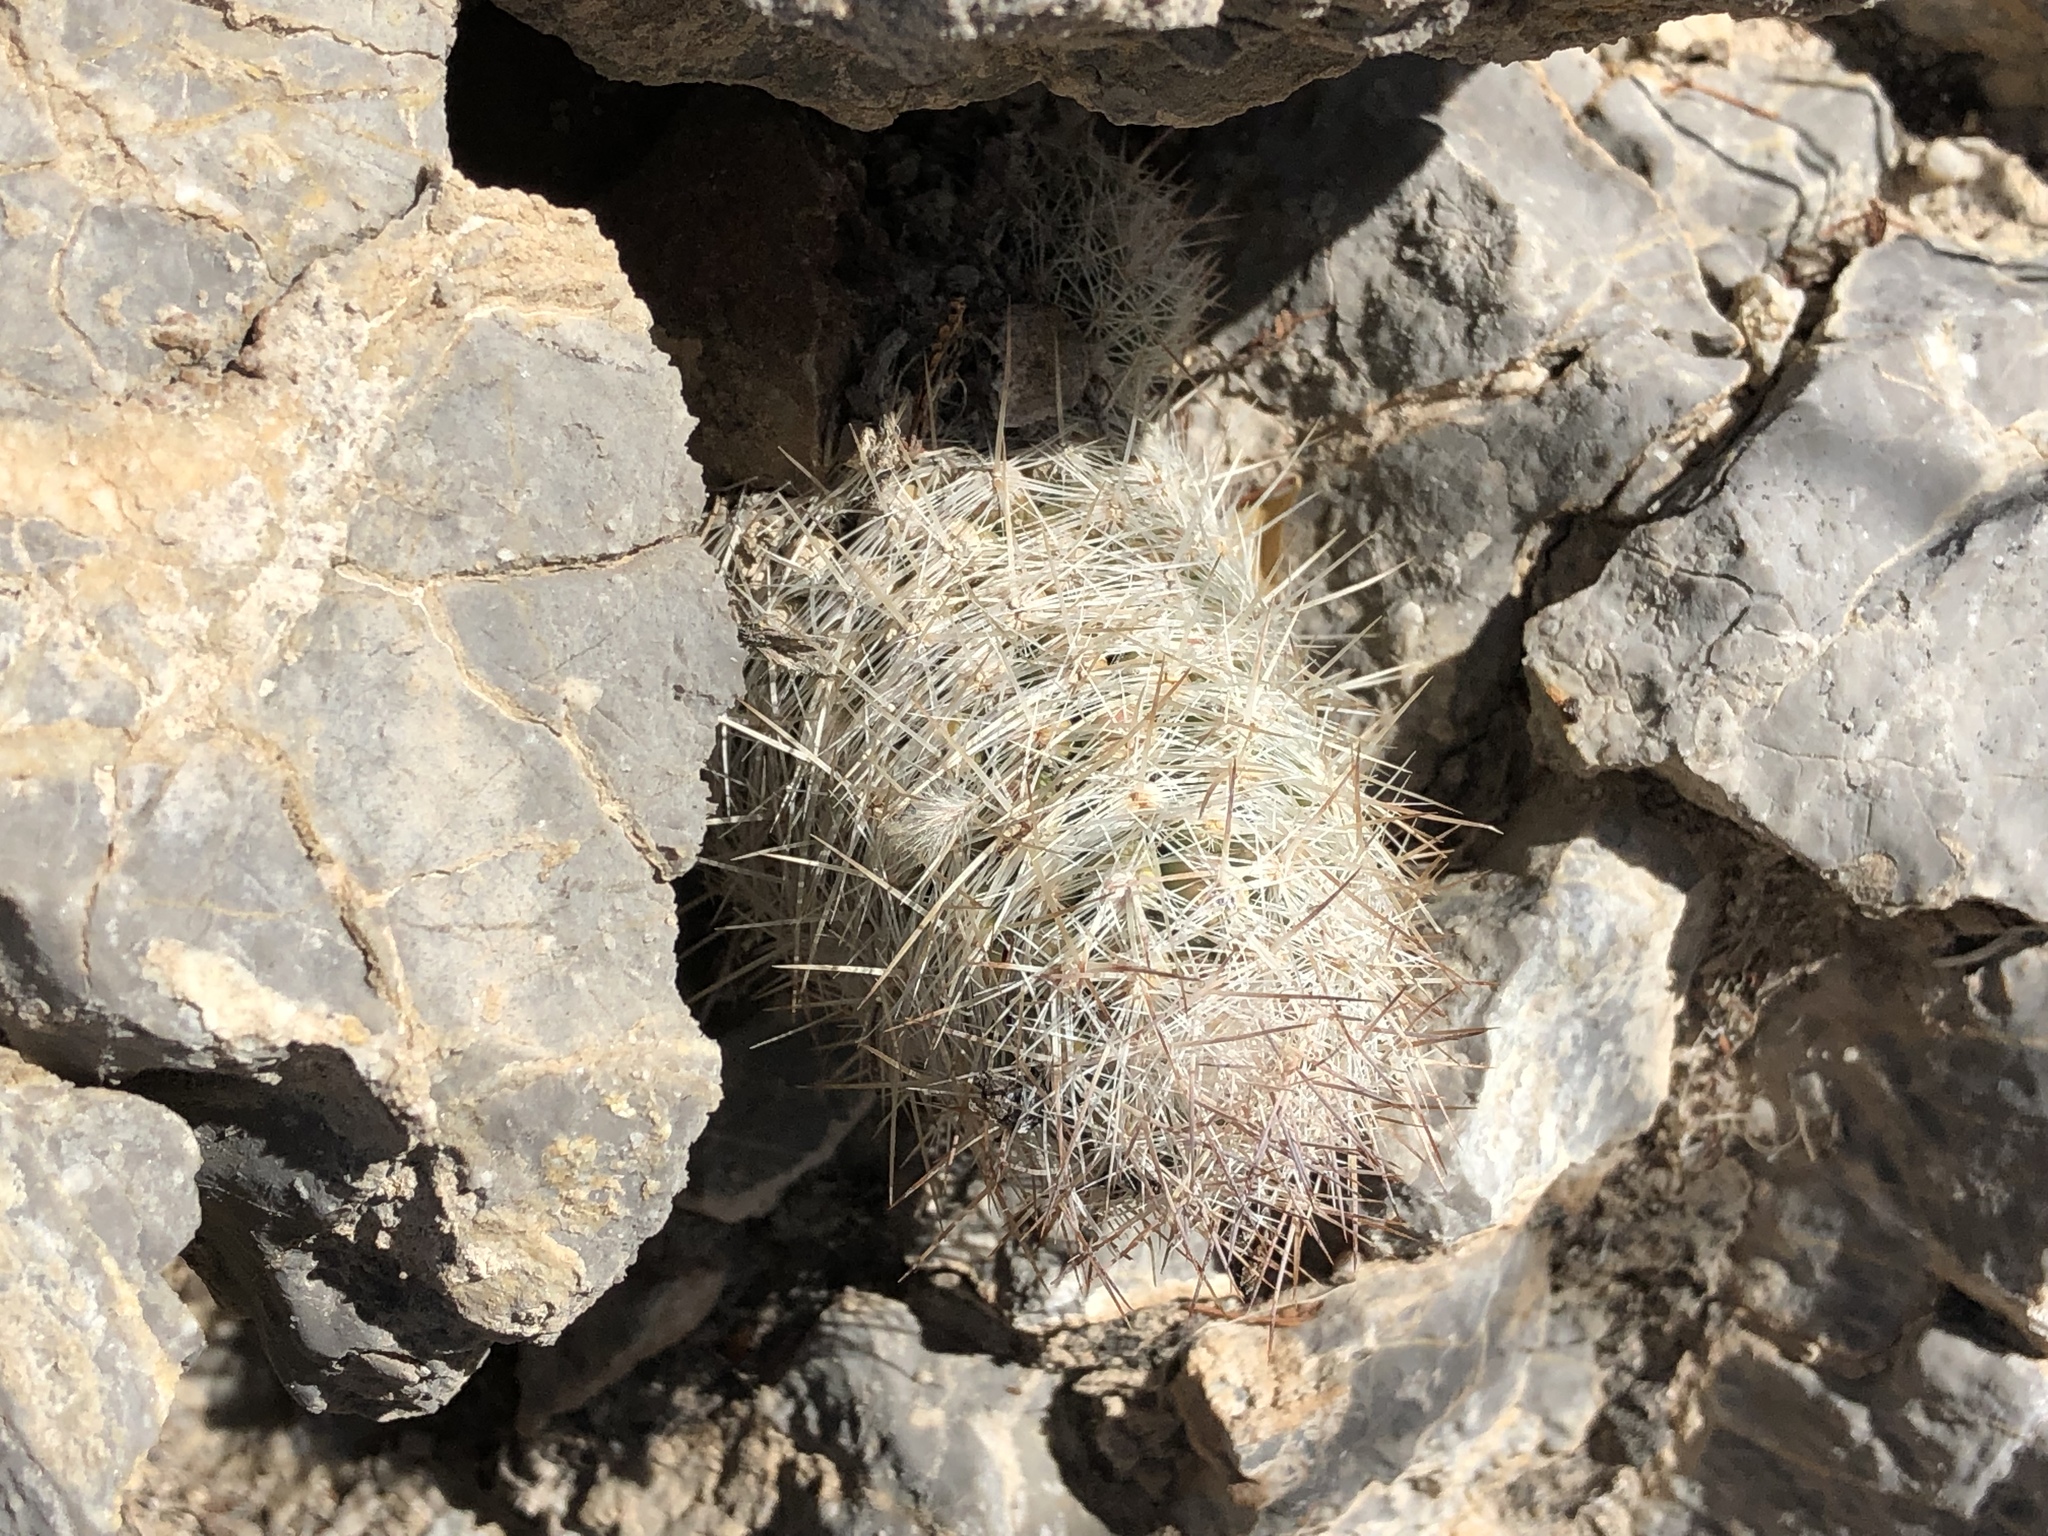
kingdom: Plantae
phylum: Tracheophyta
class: Magnoliopsida
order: Caryophyllales
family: Cactaceae
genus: Pelecyphora
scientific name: Pelecyphora tuberculosa
